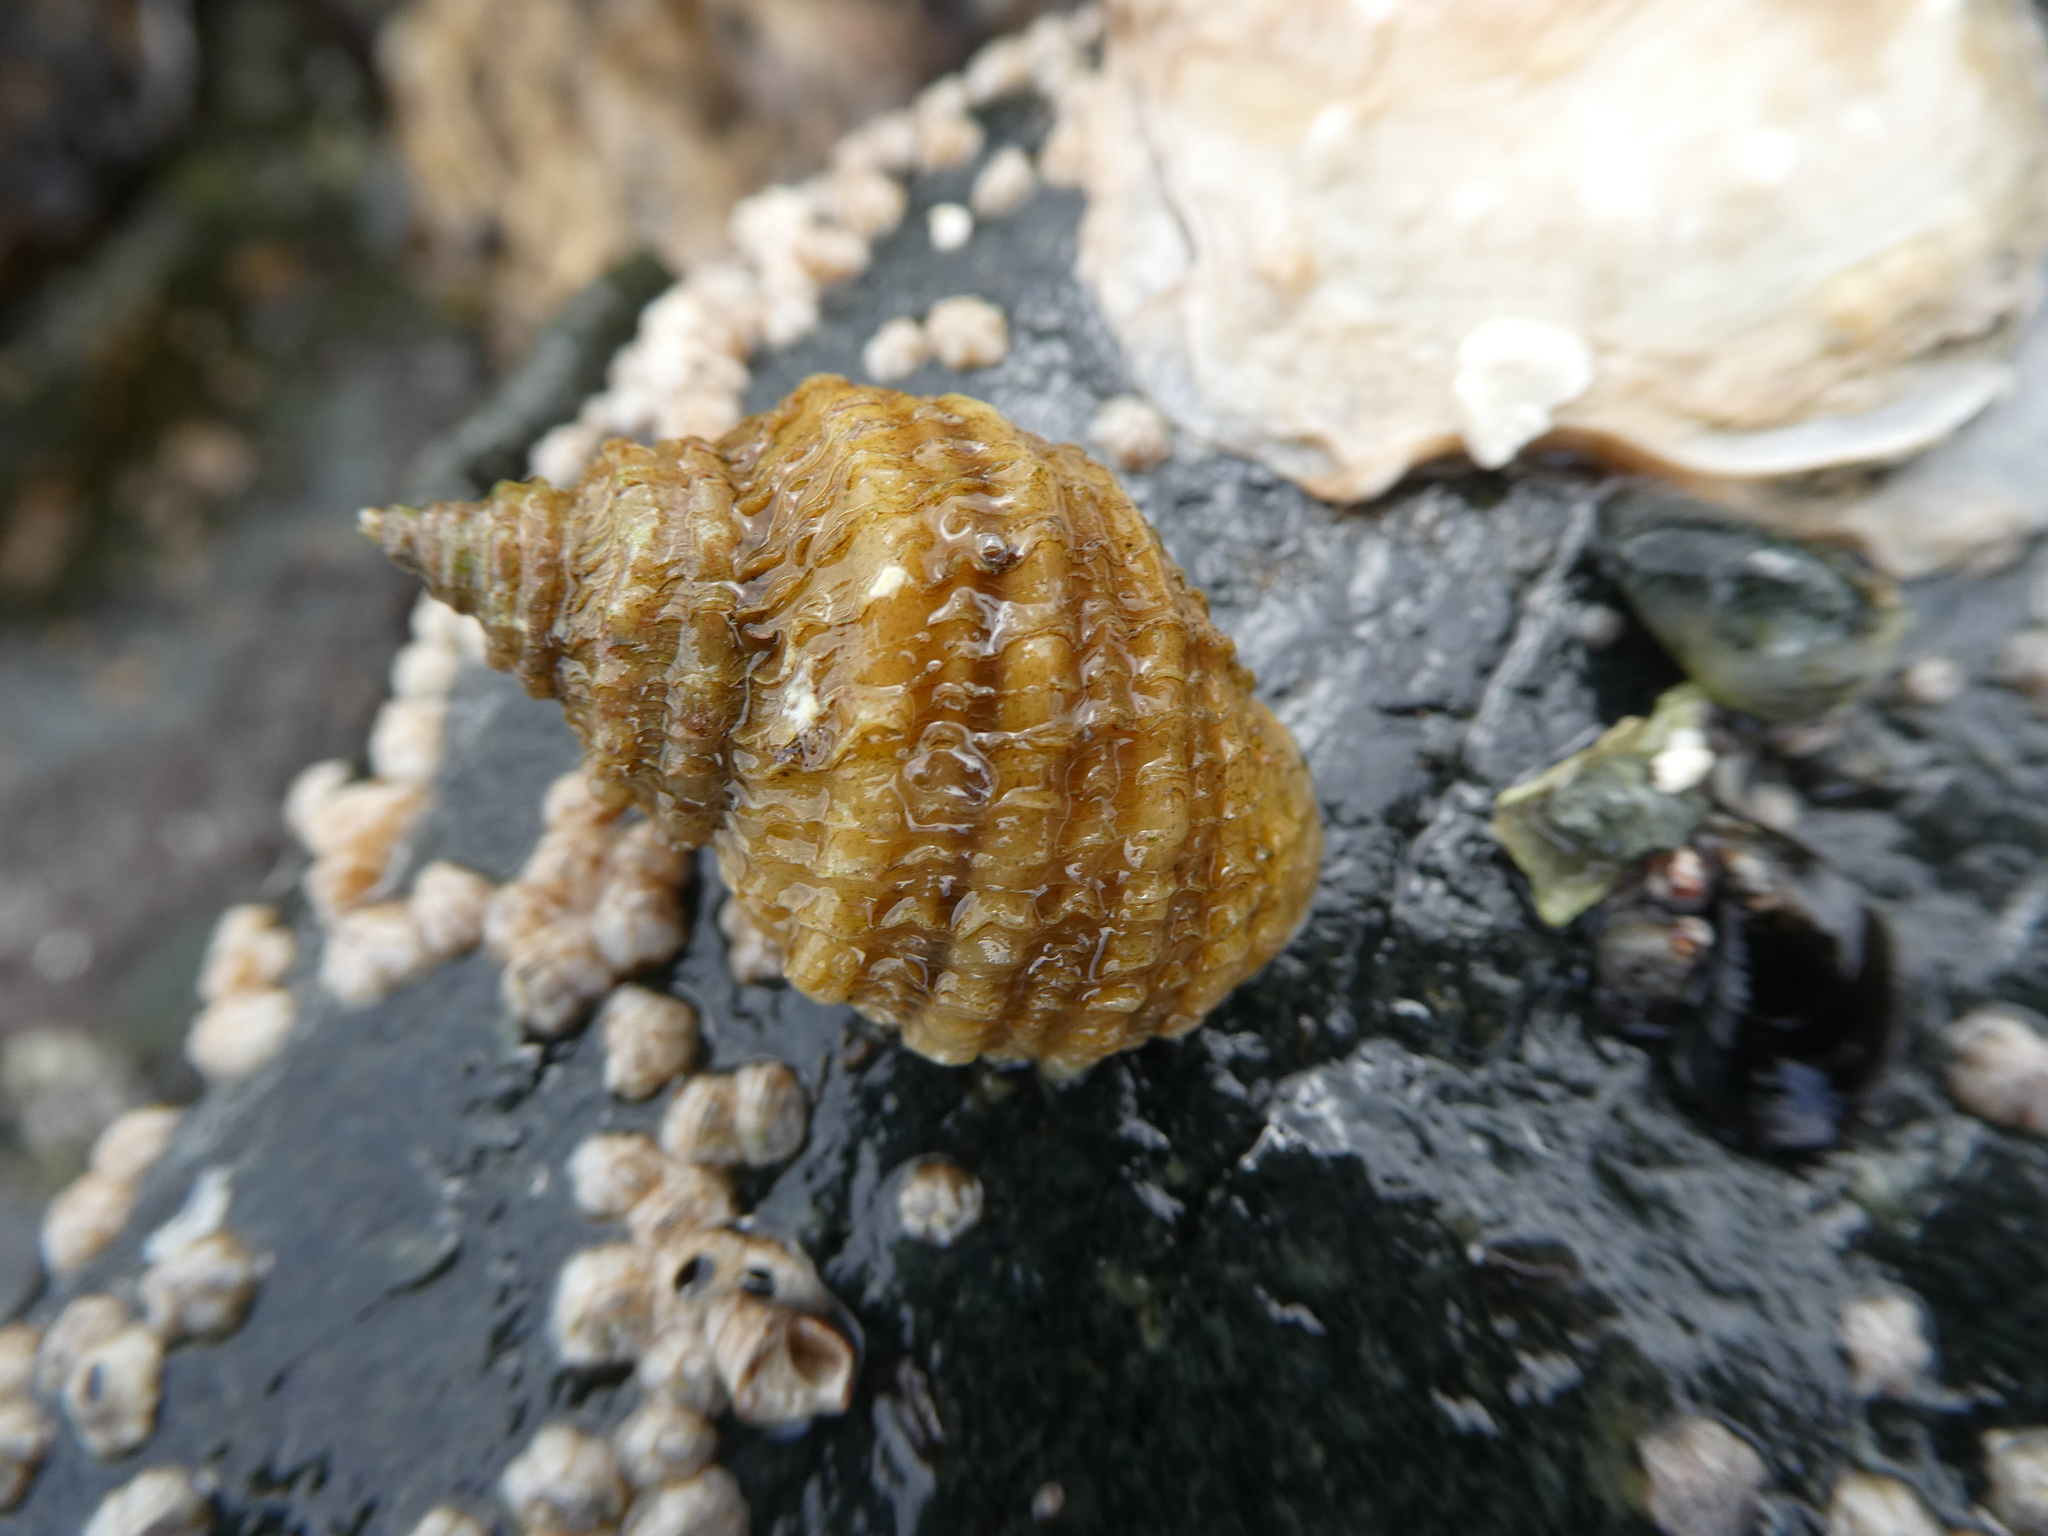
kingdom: Animalia
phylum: Mollusca
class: Gastropoda
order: Neogastropoda
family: Muricidae
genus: Nucella
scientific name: Nucella lamellosa
